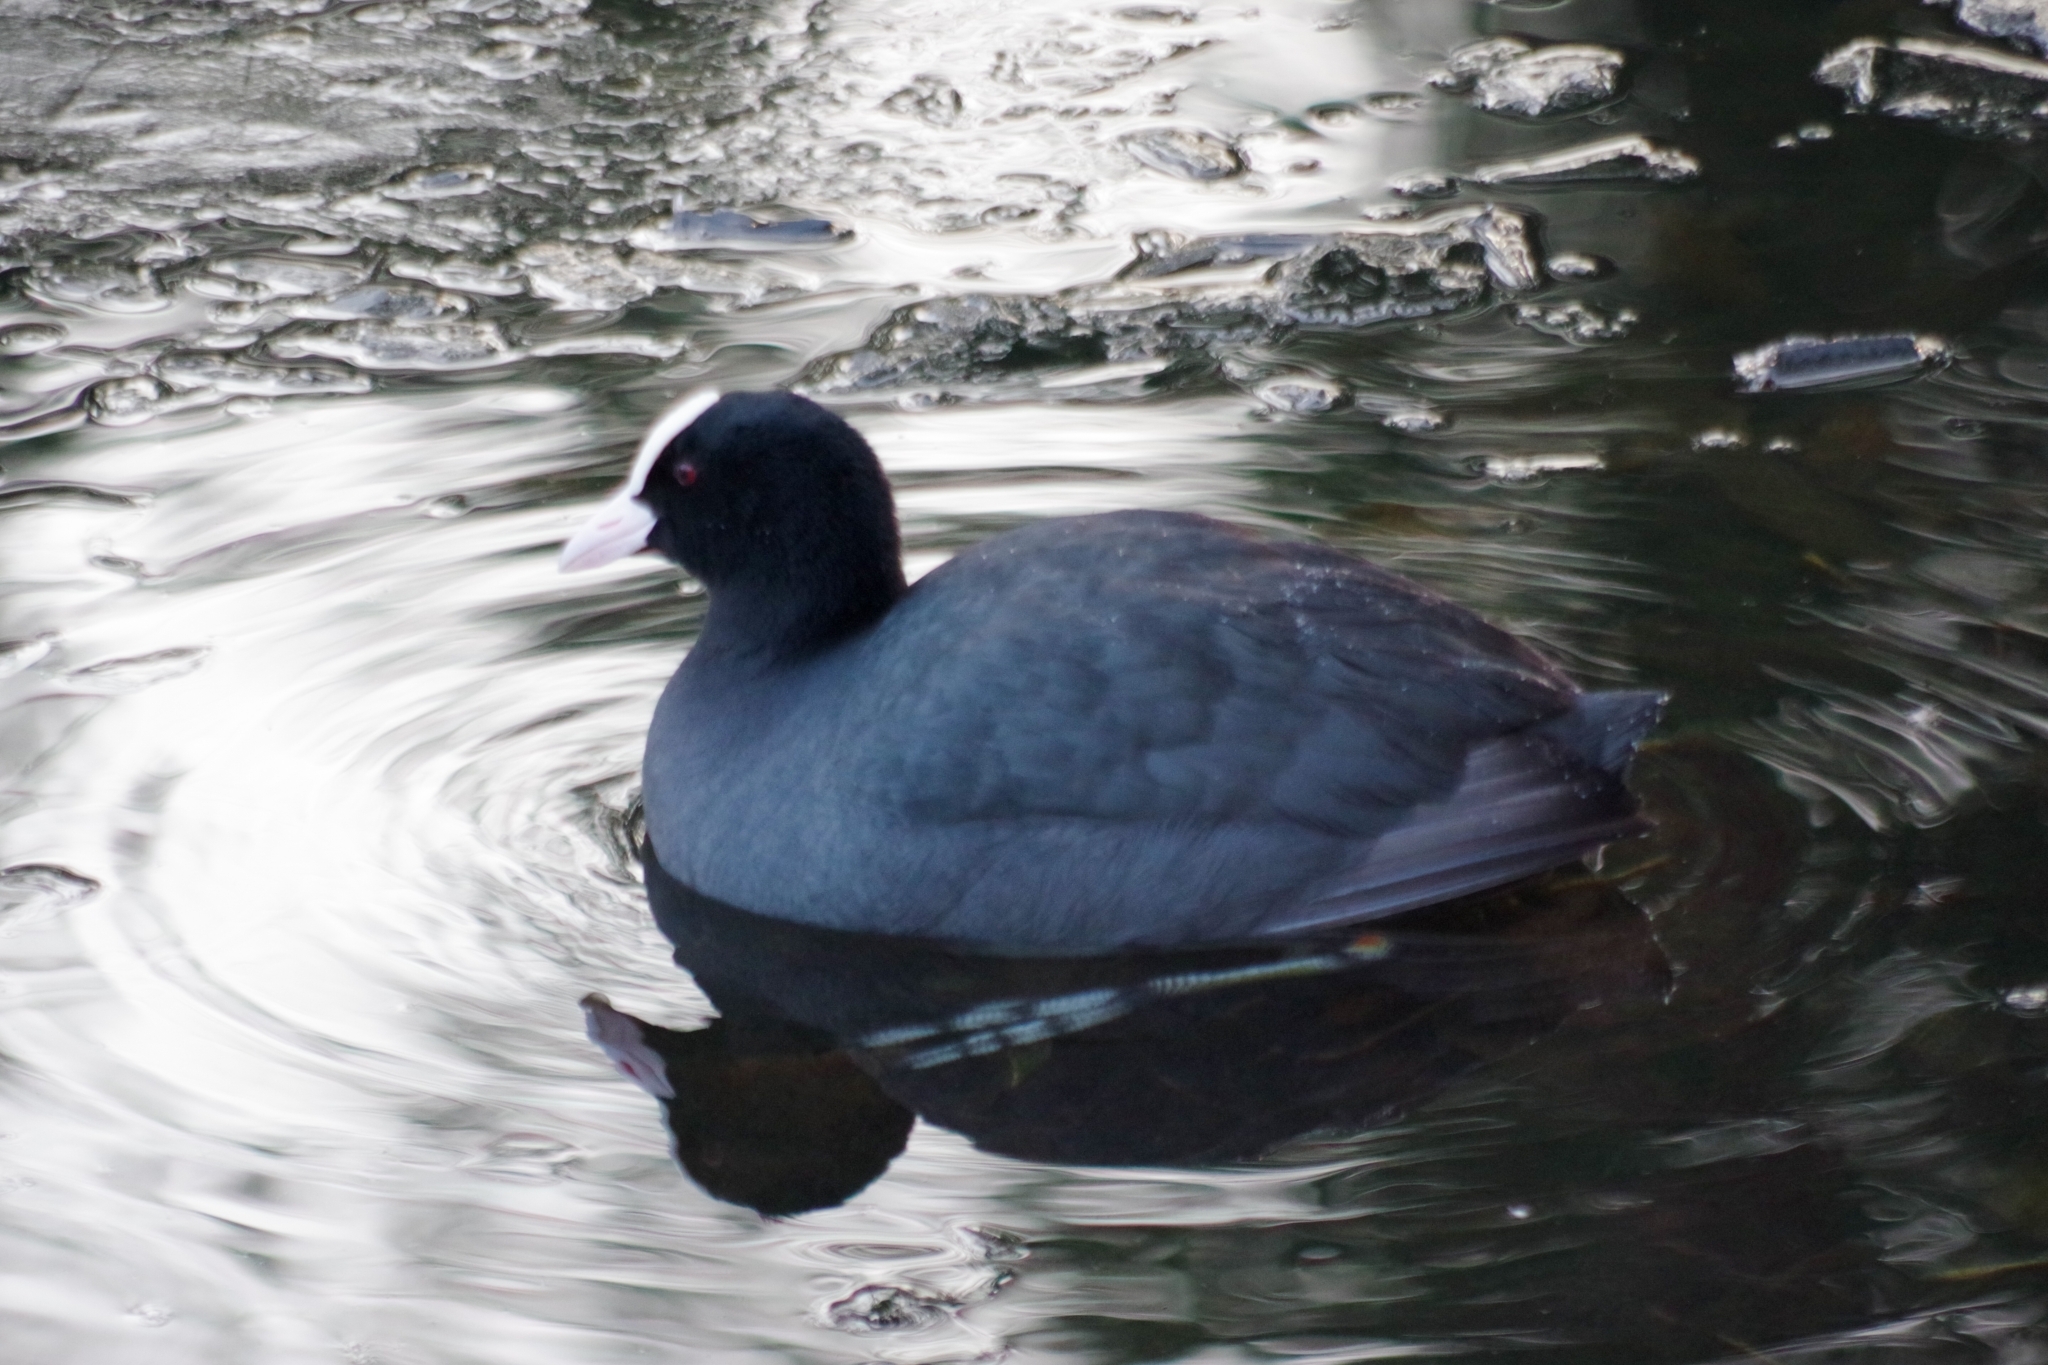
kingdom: Animalia
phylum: Chordata
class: Aves
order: Gruiformes
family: Rallidae
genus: Fulica
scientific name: Fulica atra
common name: Eurasian coot
